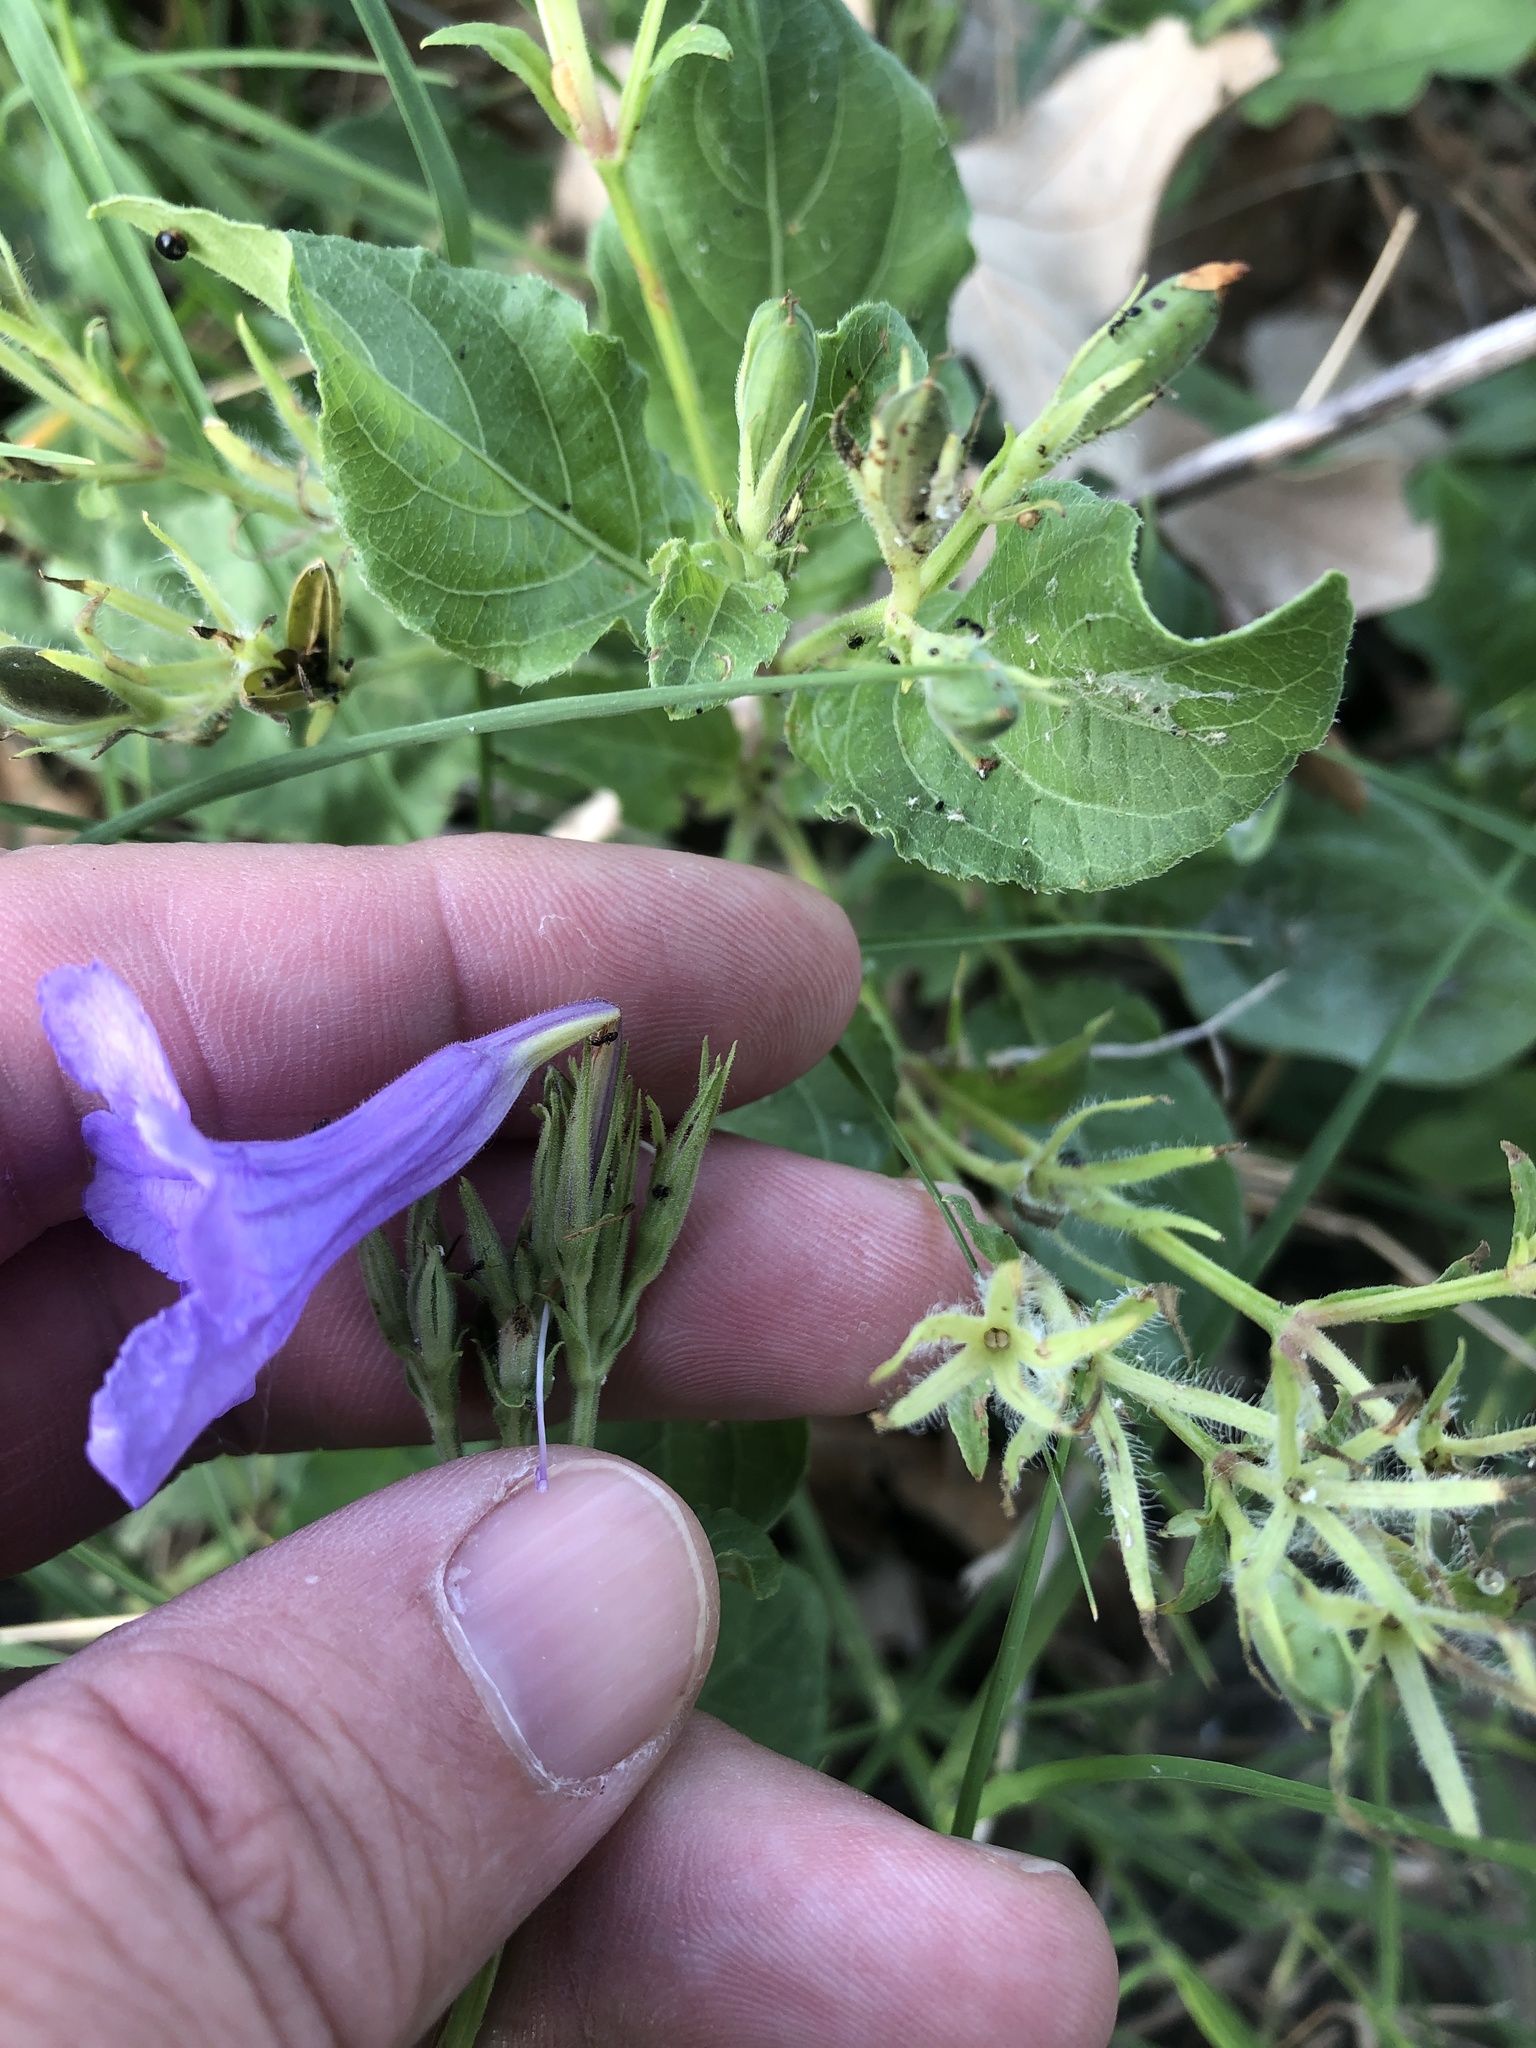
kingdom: Plantae
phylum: Tracheophyta
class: Magnoliopsida
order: Lamiales
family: Acanthaceae
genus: Ruellia
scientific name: Ruellia ciliatiflora
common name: Hairyflower wild petunia
